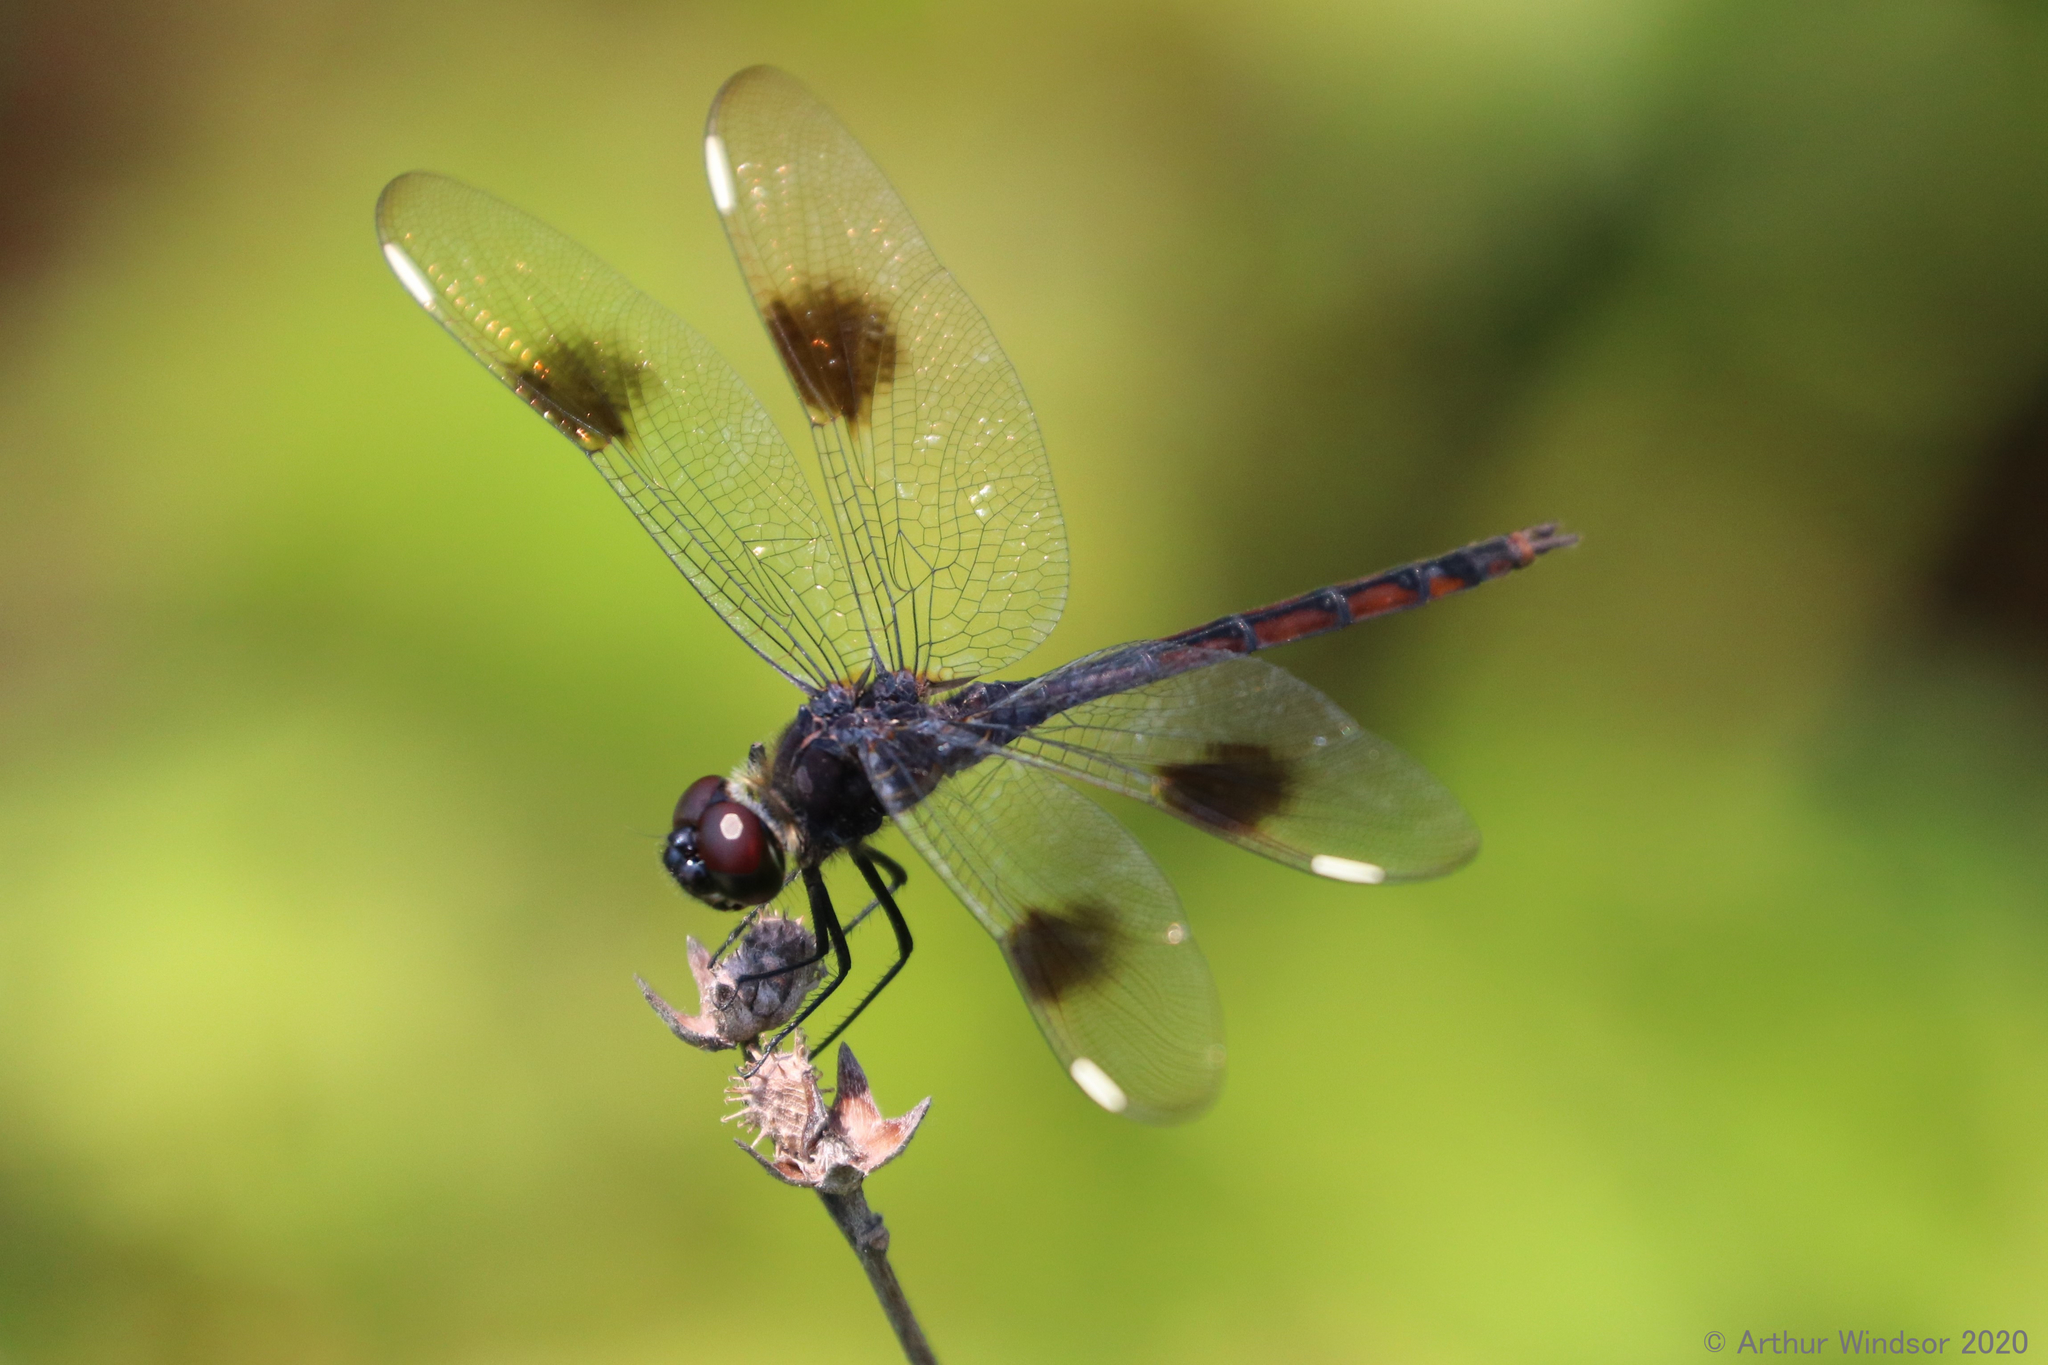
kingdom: Animalia
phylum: Arthropoda
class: Insecta
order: Odonata
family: Libellulidae
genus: Brachymesia
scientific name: Brachymesia gravida
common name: Four-spotted pennant
